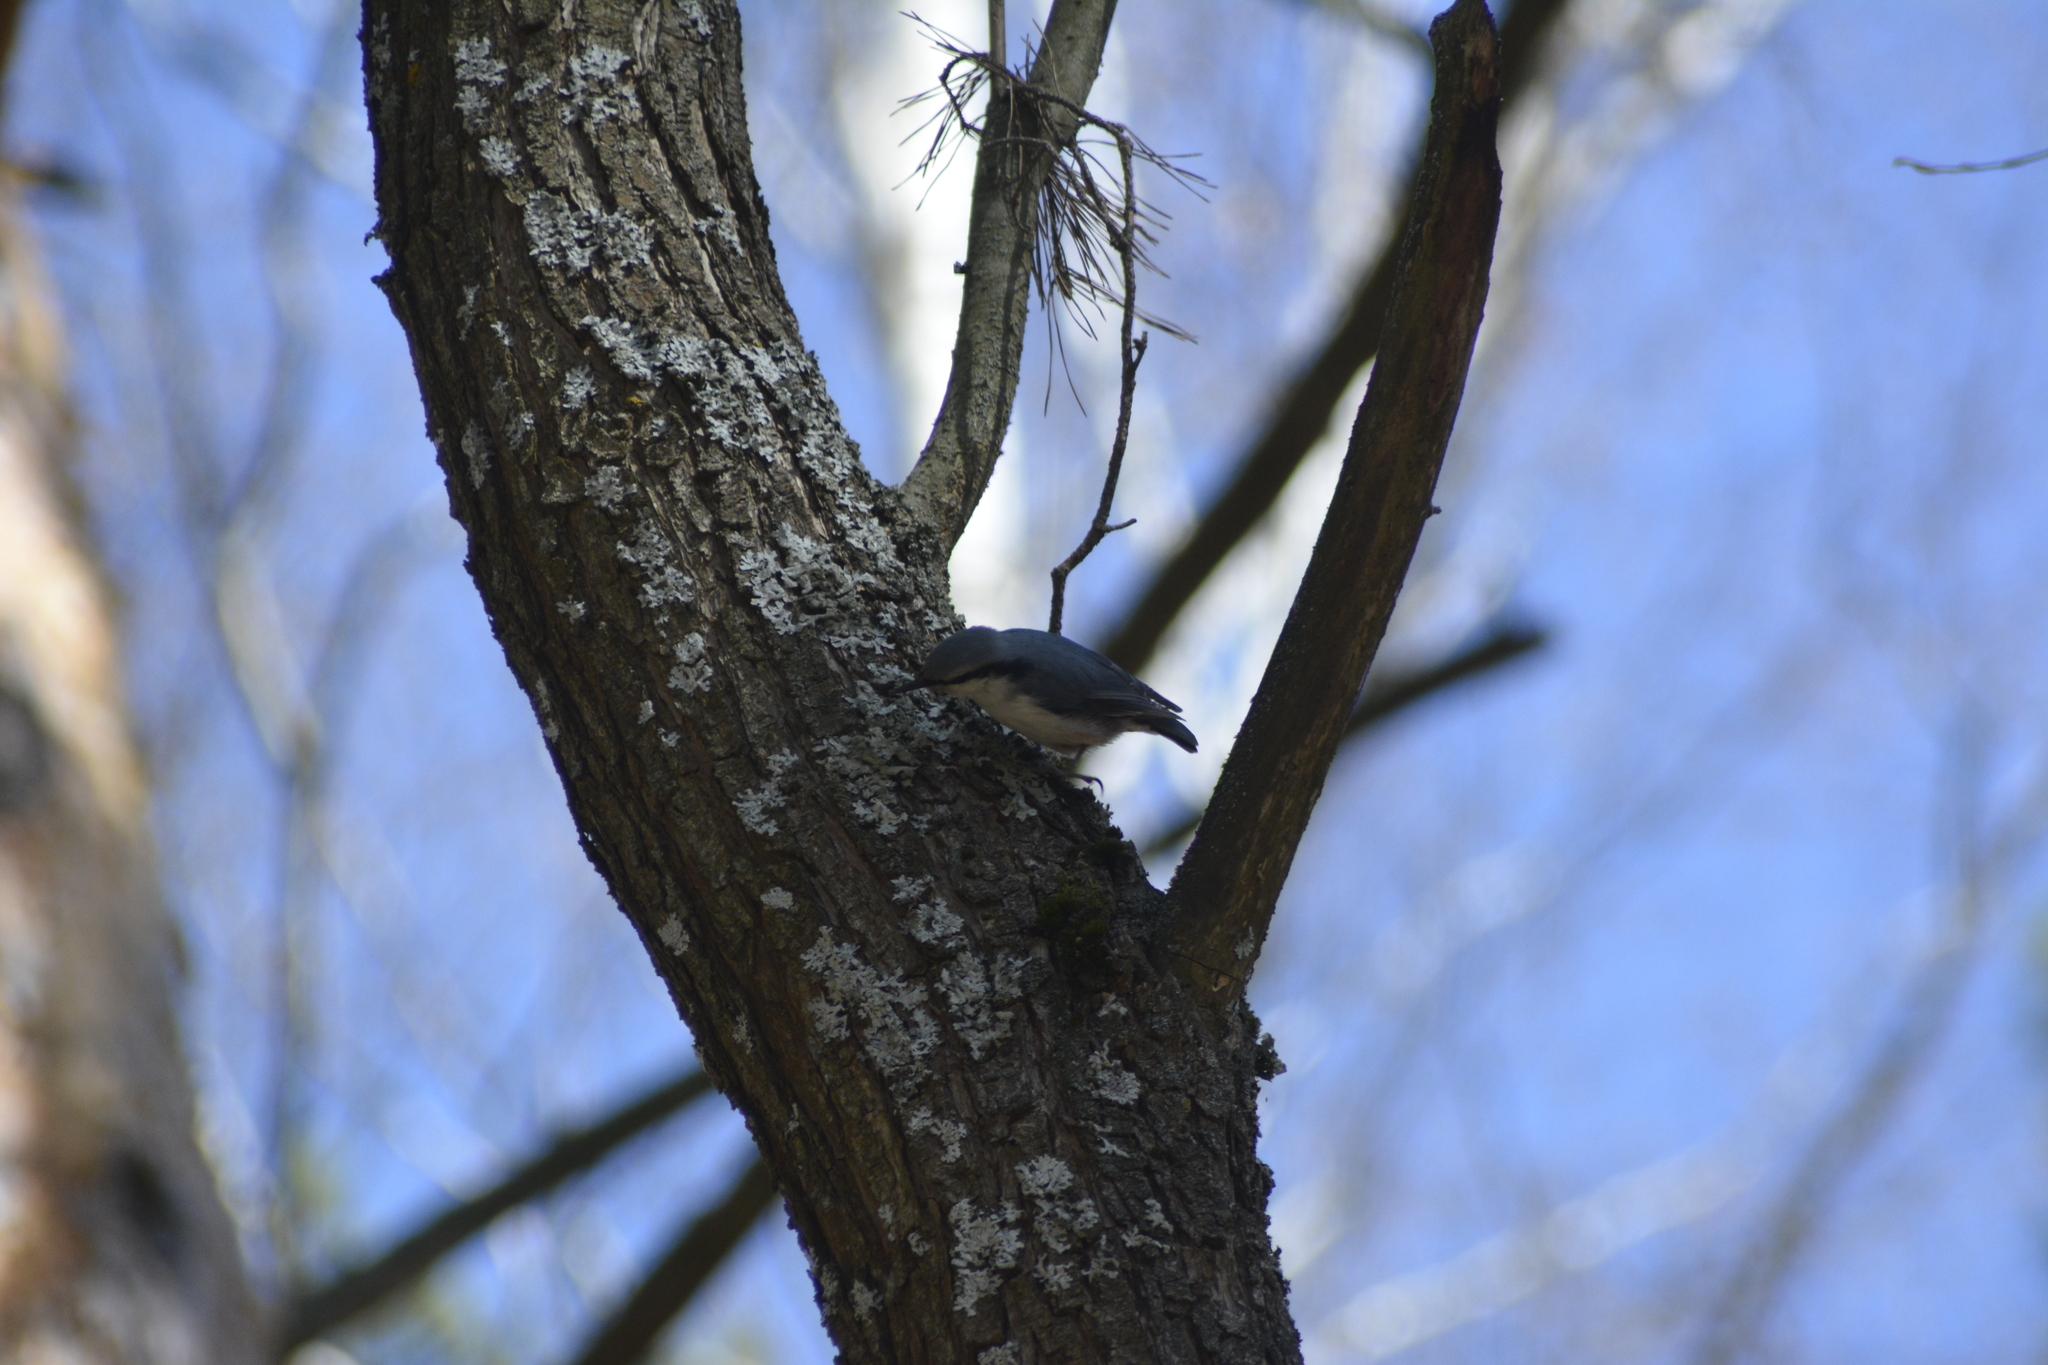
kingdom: Animalia
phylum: Chordata
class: Aves
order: Passeriformes
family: Sittidae
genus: Sitta
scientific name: Sitta europaea
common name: Eurasian nuthatch
